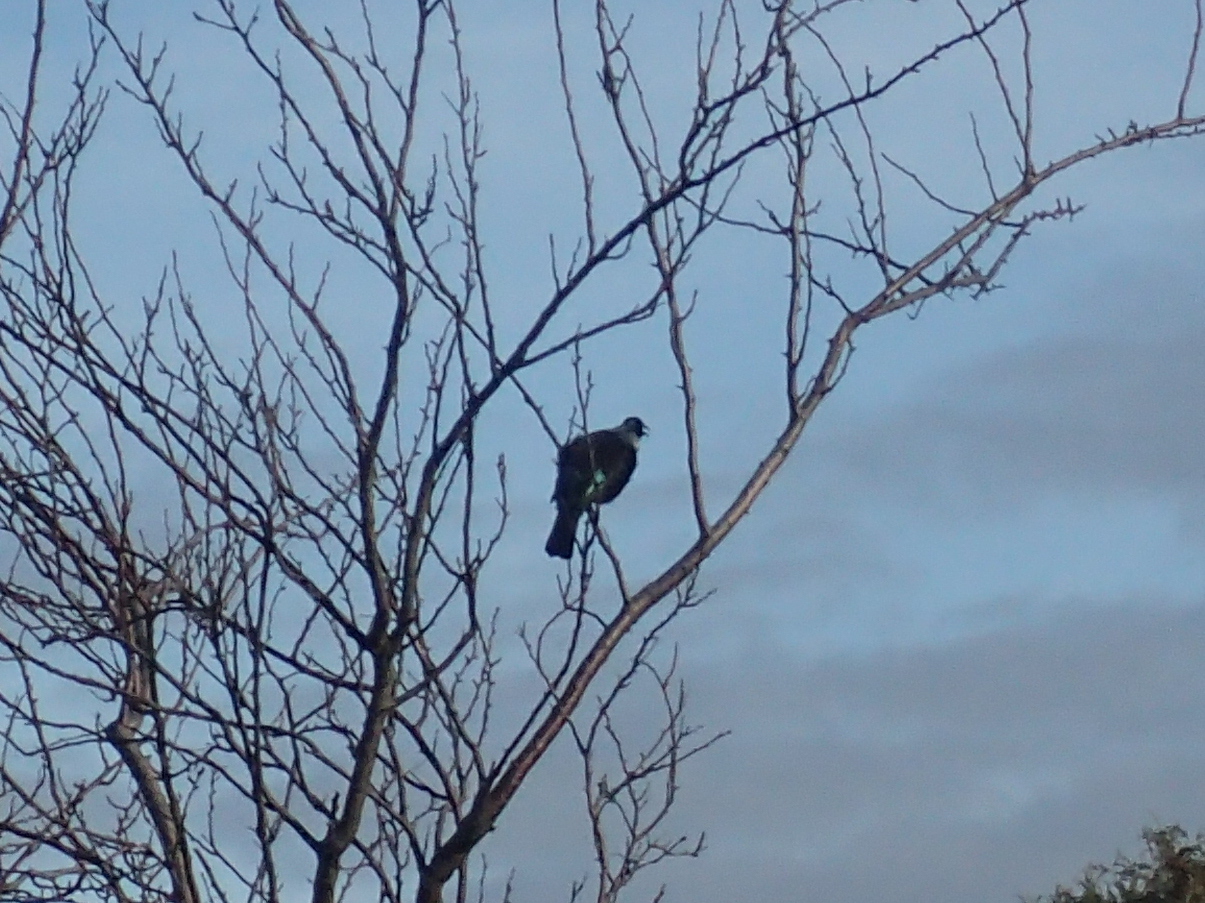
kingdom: Animalia
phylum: Chordata
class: Aves
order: Passeriformes
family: Meliphagidae
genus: Prosthemadera
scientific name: Prosthemadera novaeseelandiae
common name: Tui
